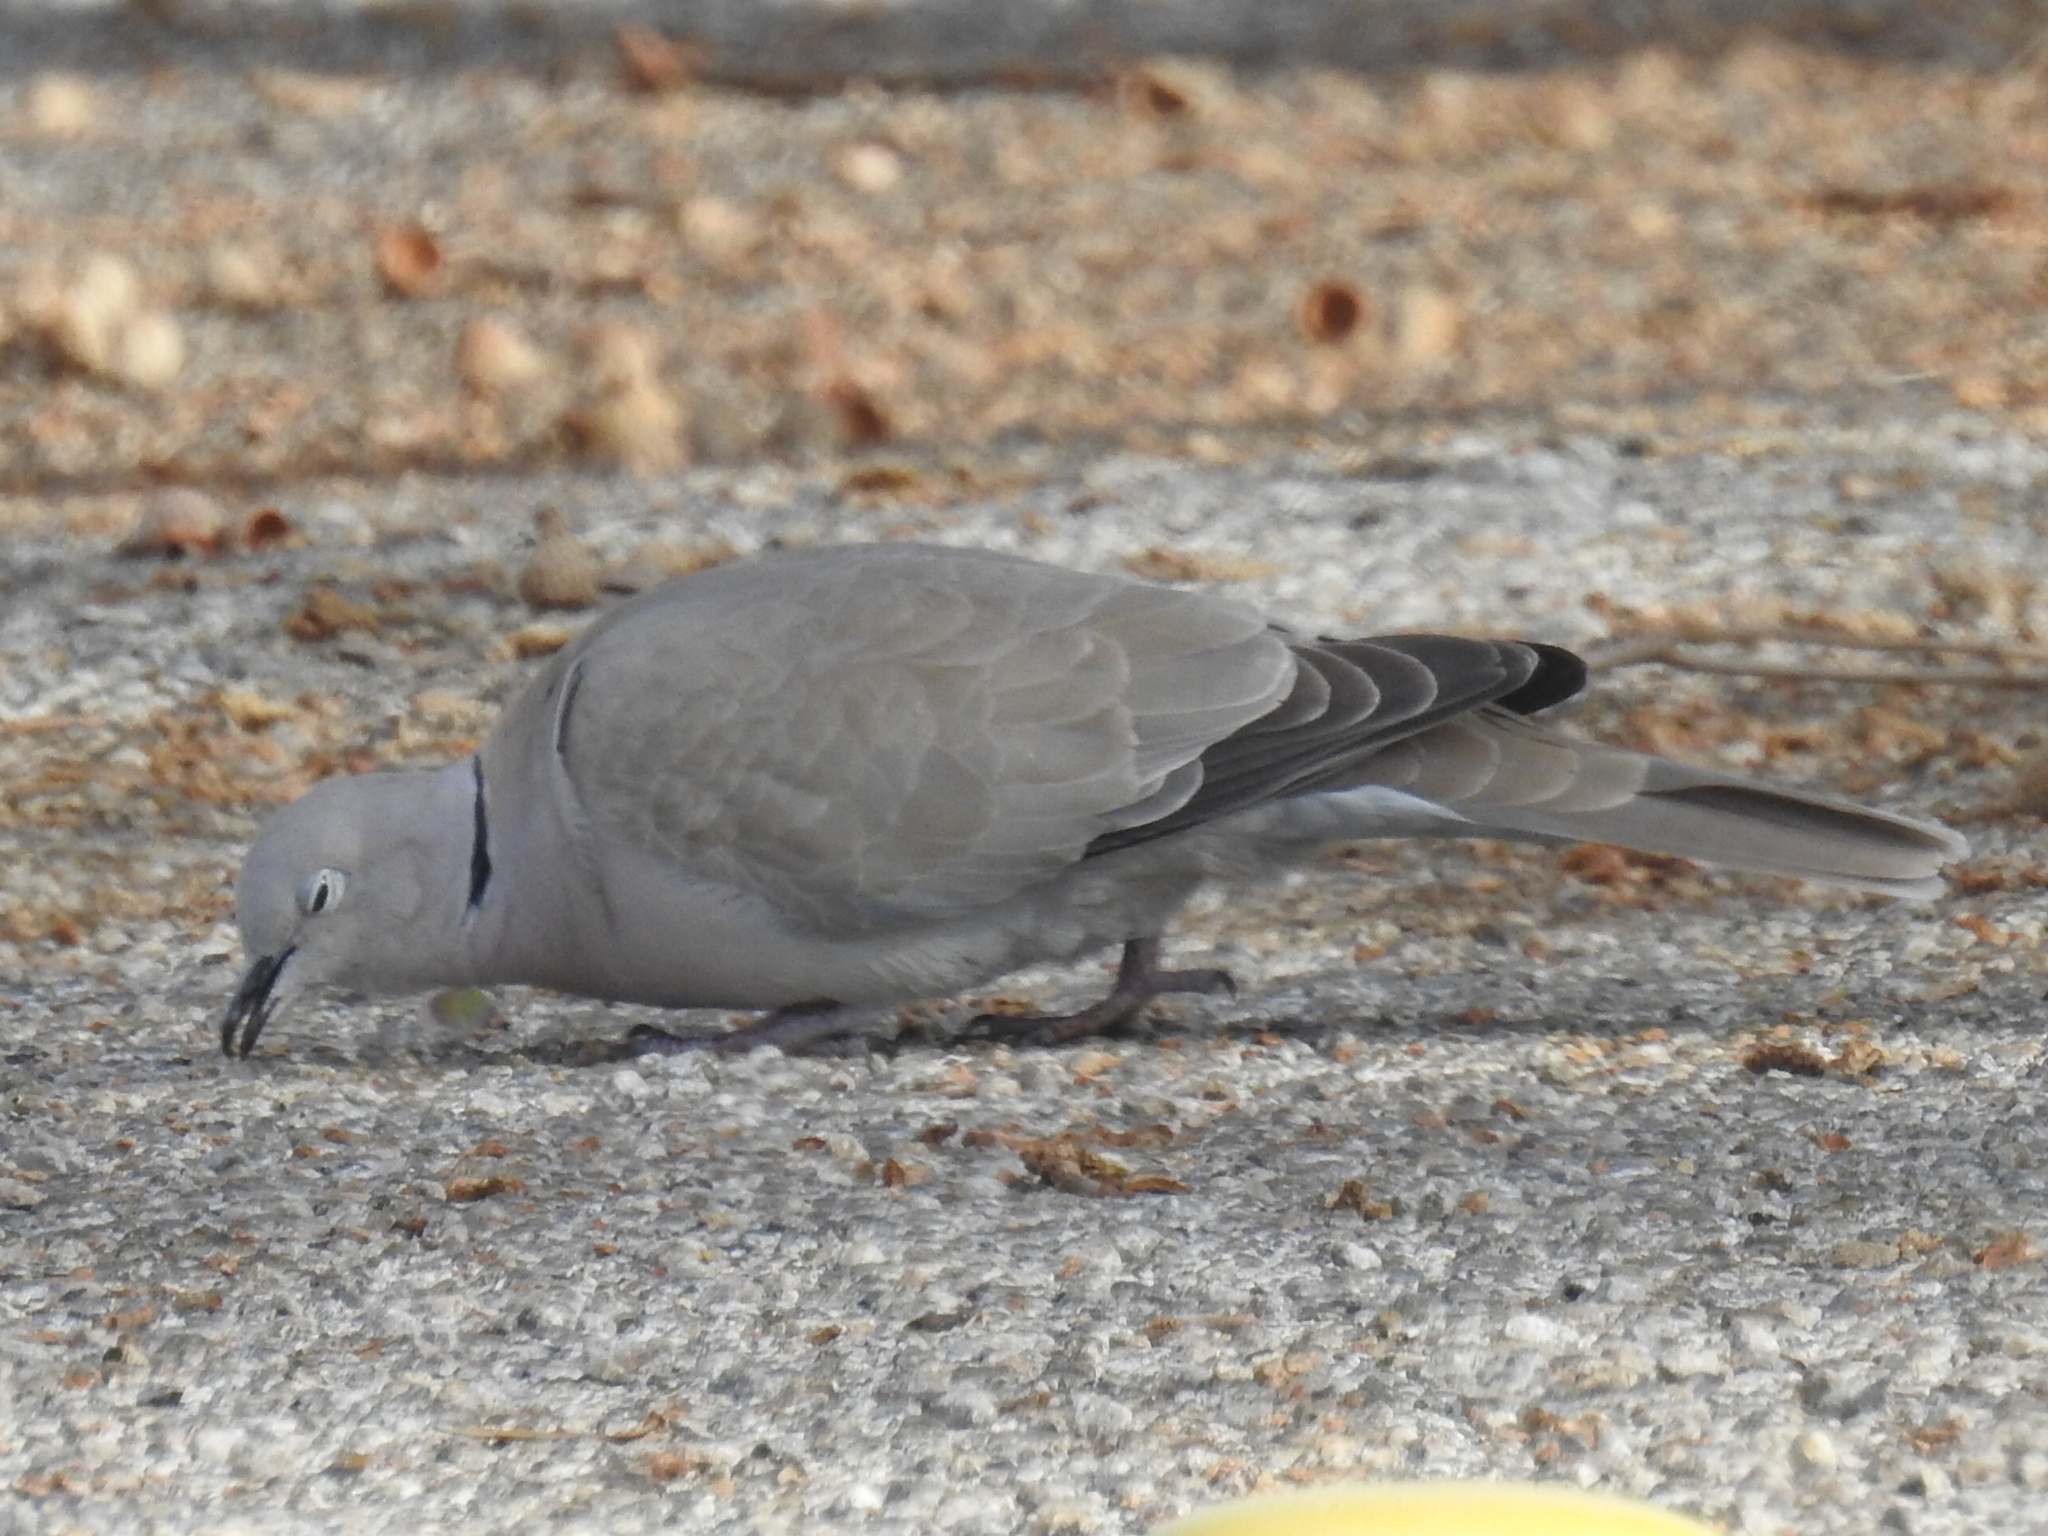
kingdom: Animalia
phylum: Chordata
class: Aves
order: Columbiformes
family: Columbidae
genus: Streptopelia
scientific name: Streptopelia decaocto
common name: Eurasian collared dove
